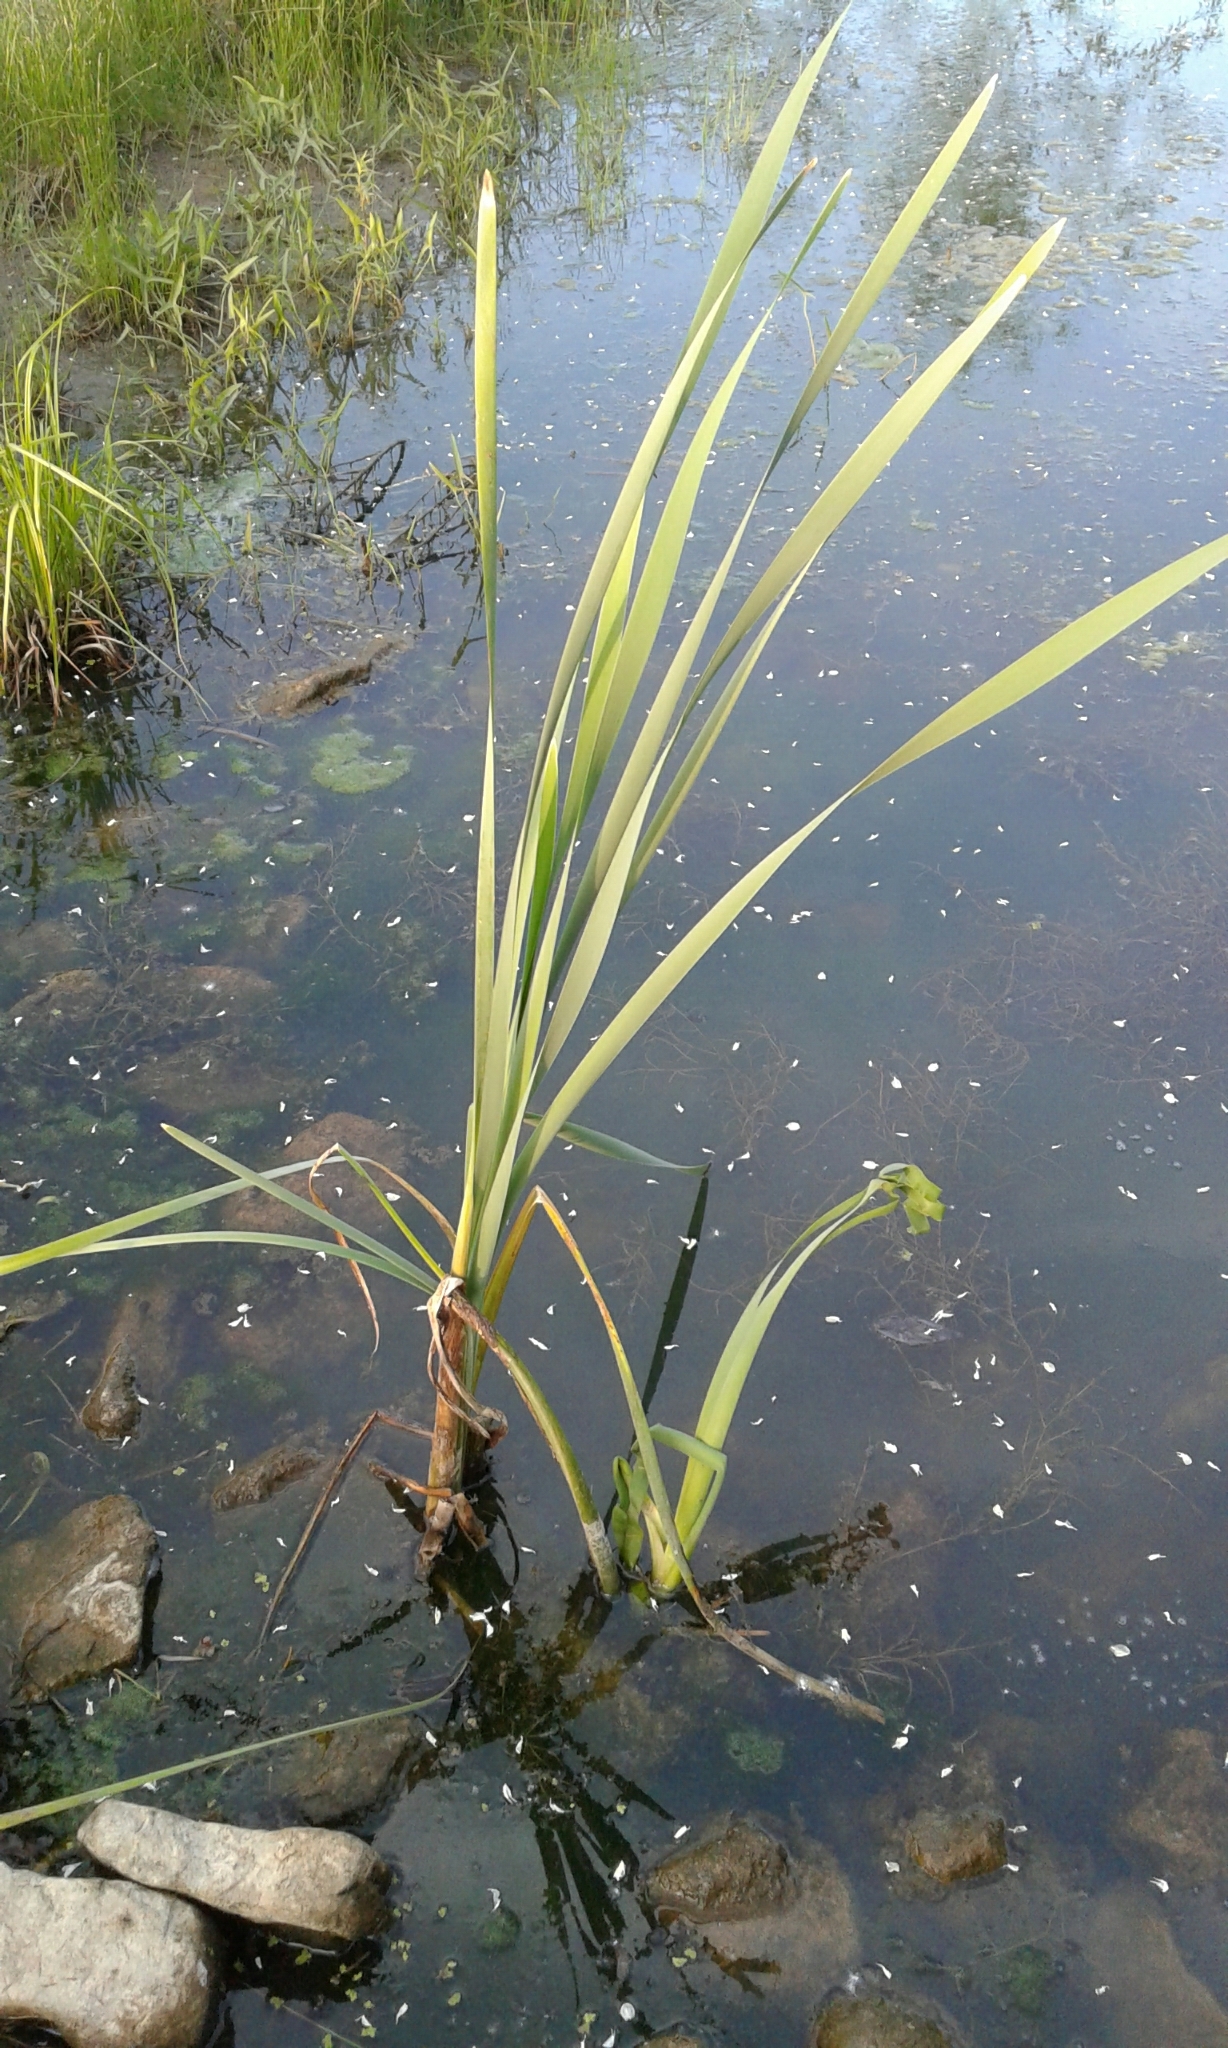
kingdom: Plantae
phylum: Tracheophyta
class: Liliopsida
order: Poales
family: Typhaceae
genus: Typha
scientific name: Typha latifolia
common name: Broadleaf cattail
